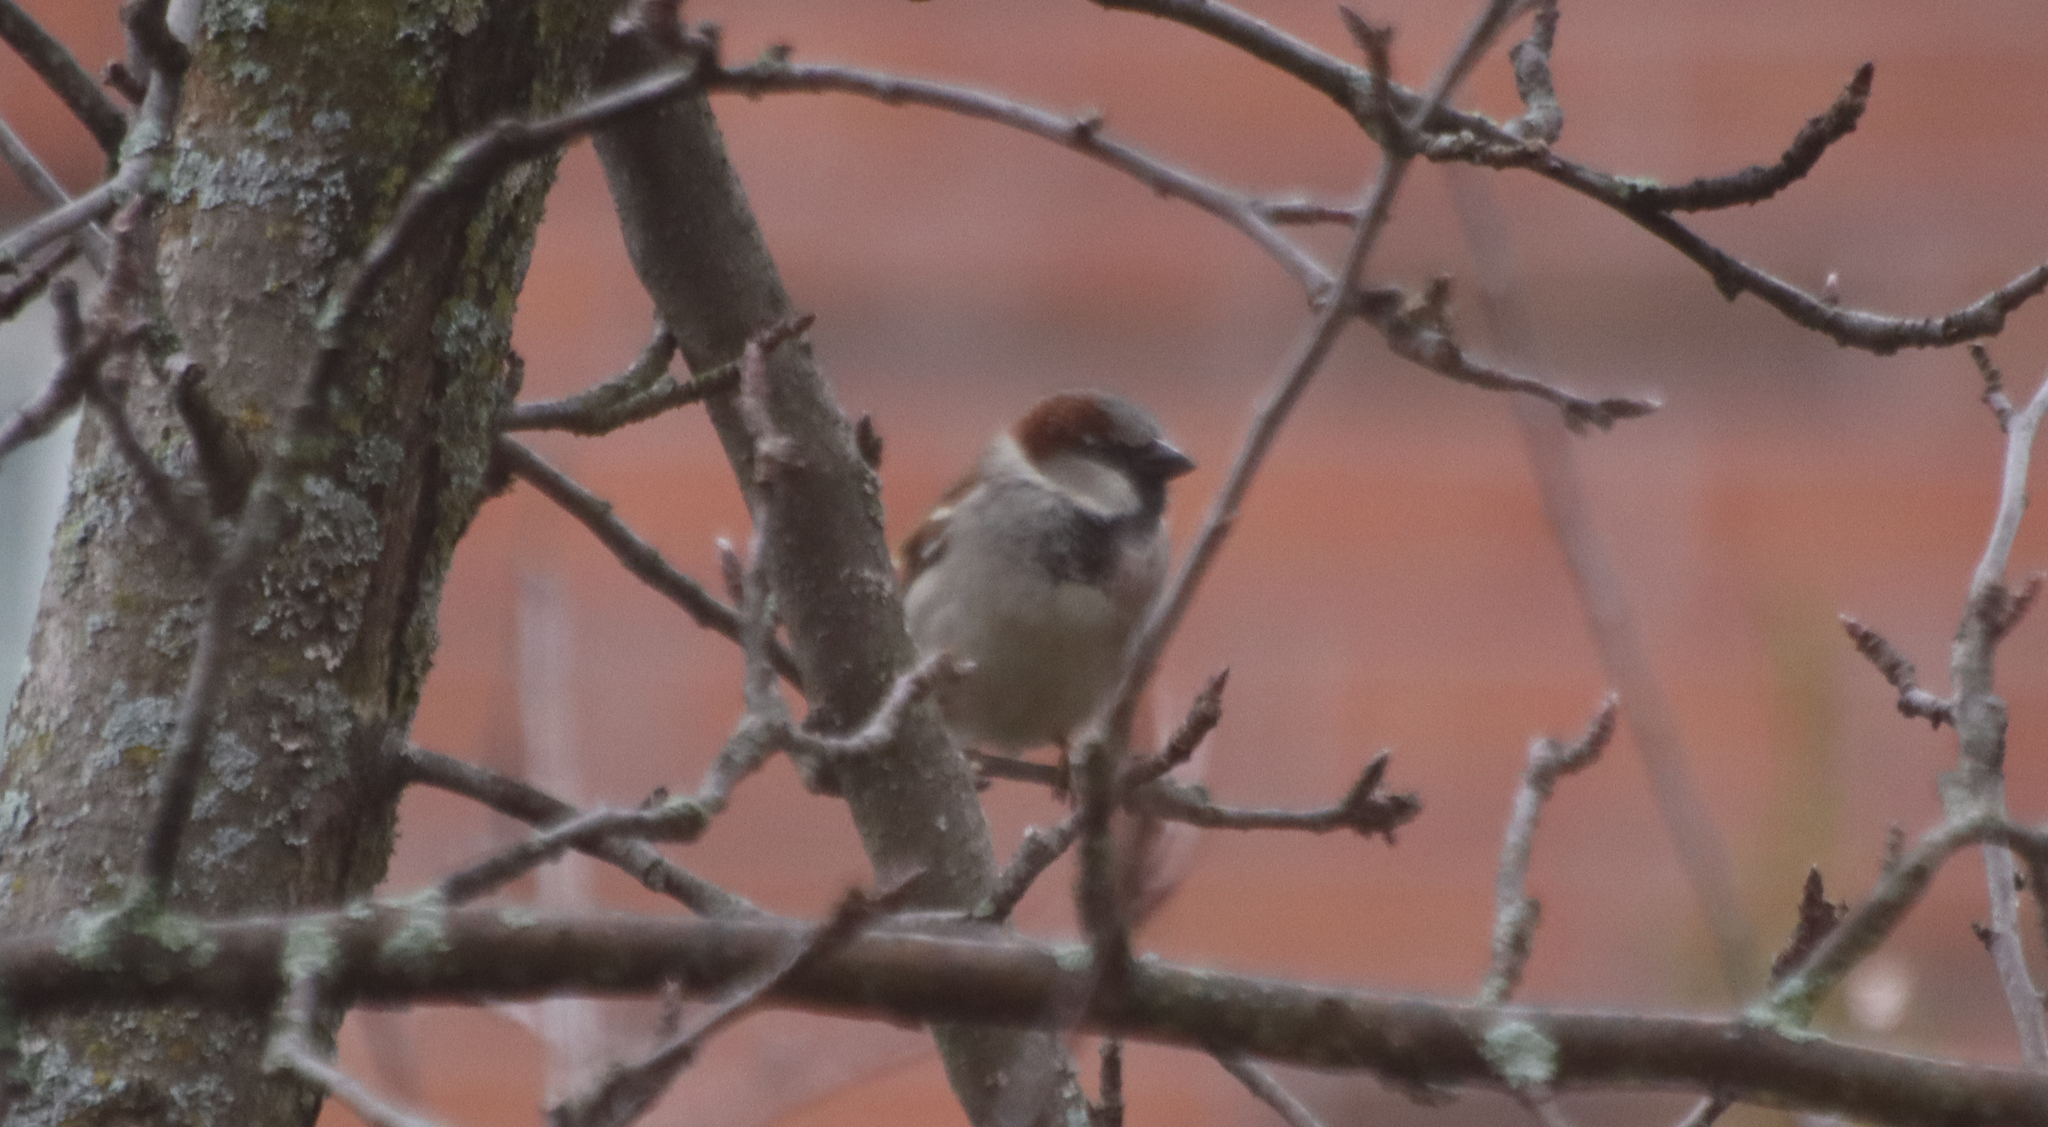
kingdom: Animalia
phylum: Chordata
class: Aves
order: Passeriformes
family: Passeridae
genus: Passer
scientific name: Passer domesticus
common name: House sparrow
